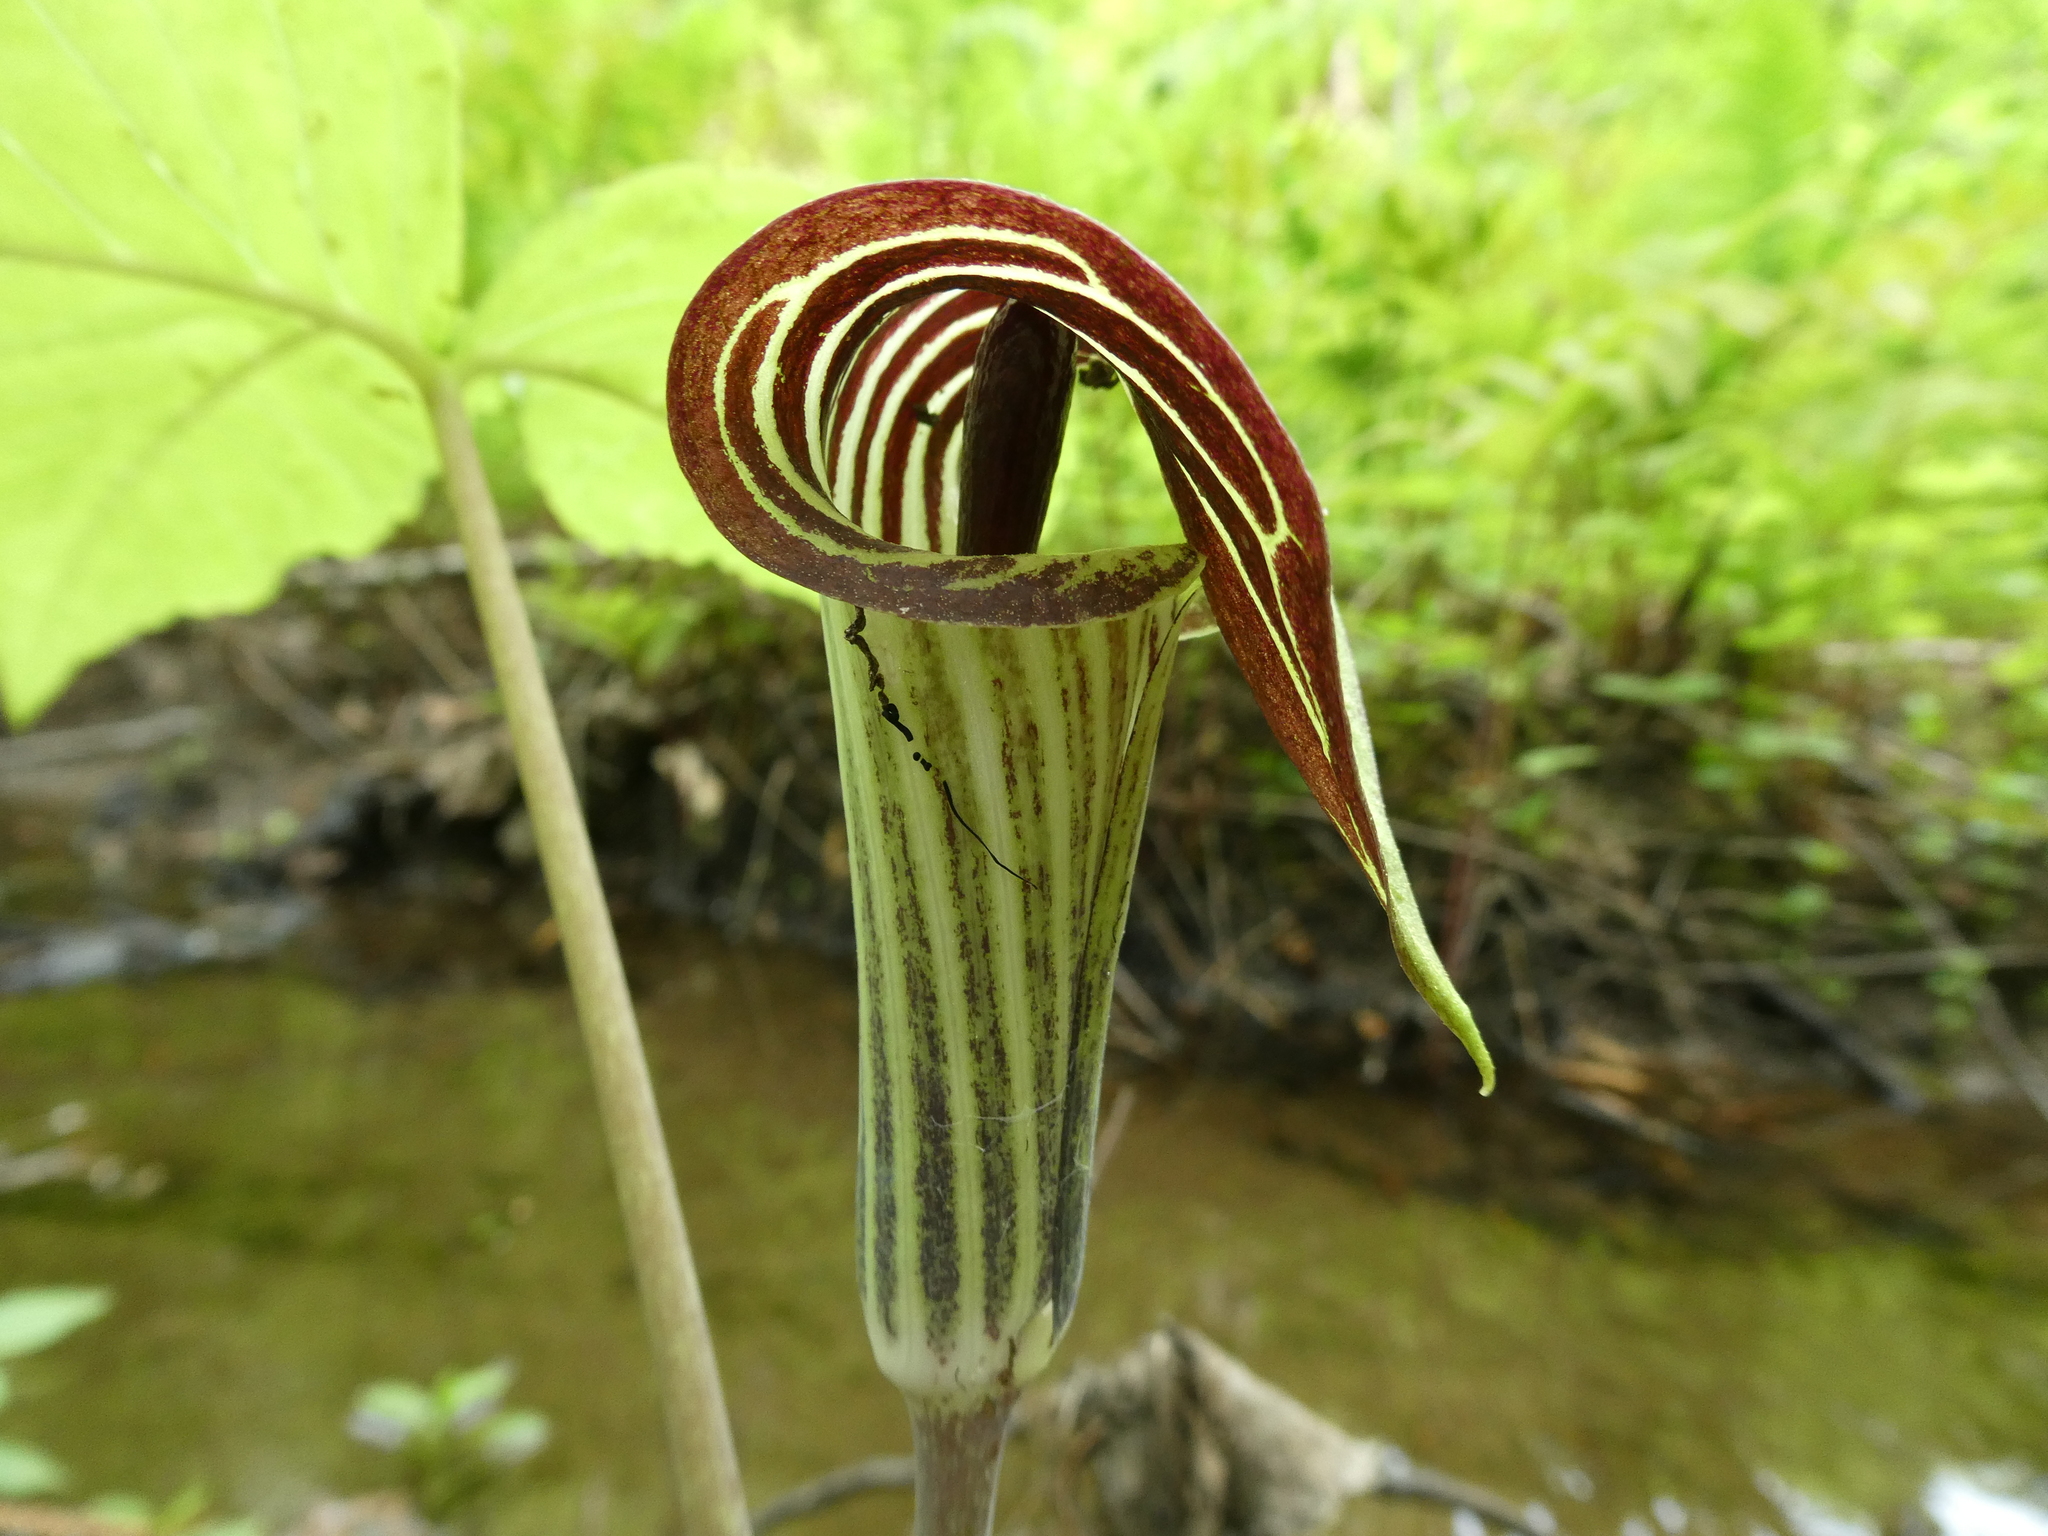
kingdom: Plantae
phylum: Tracheophyta
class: Liliopsida
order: Alismatales
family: Araceae
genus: Arisaema
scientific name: Arisaema triphyllum
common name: Jack-in-the-pulpit
